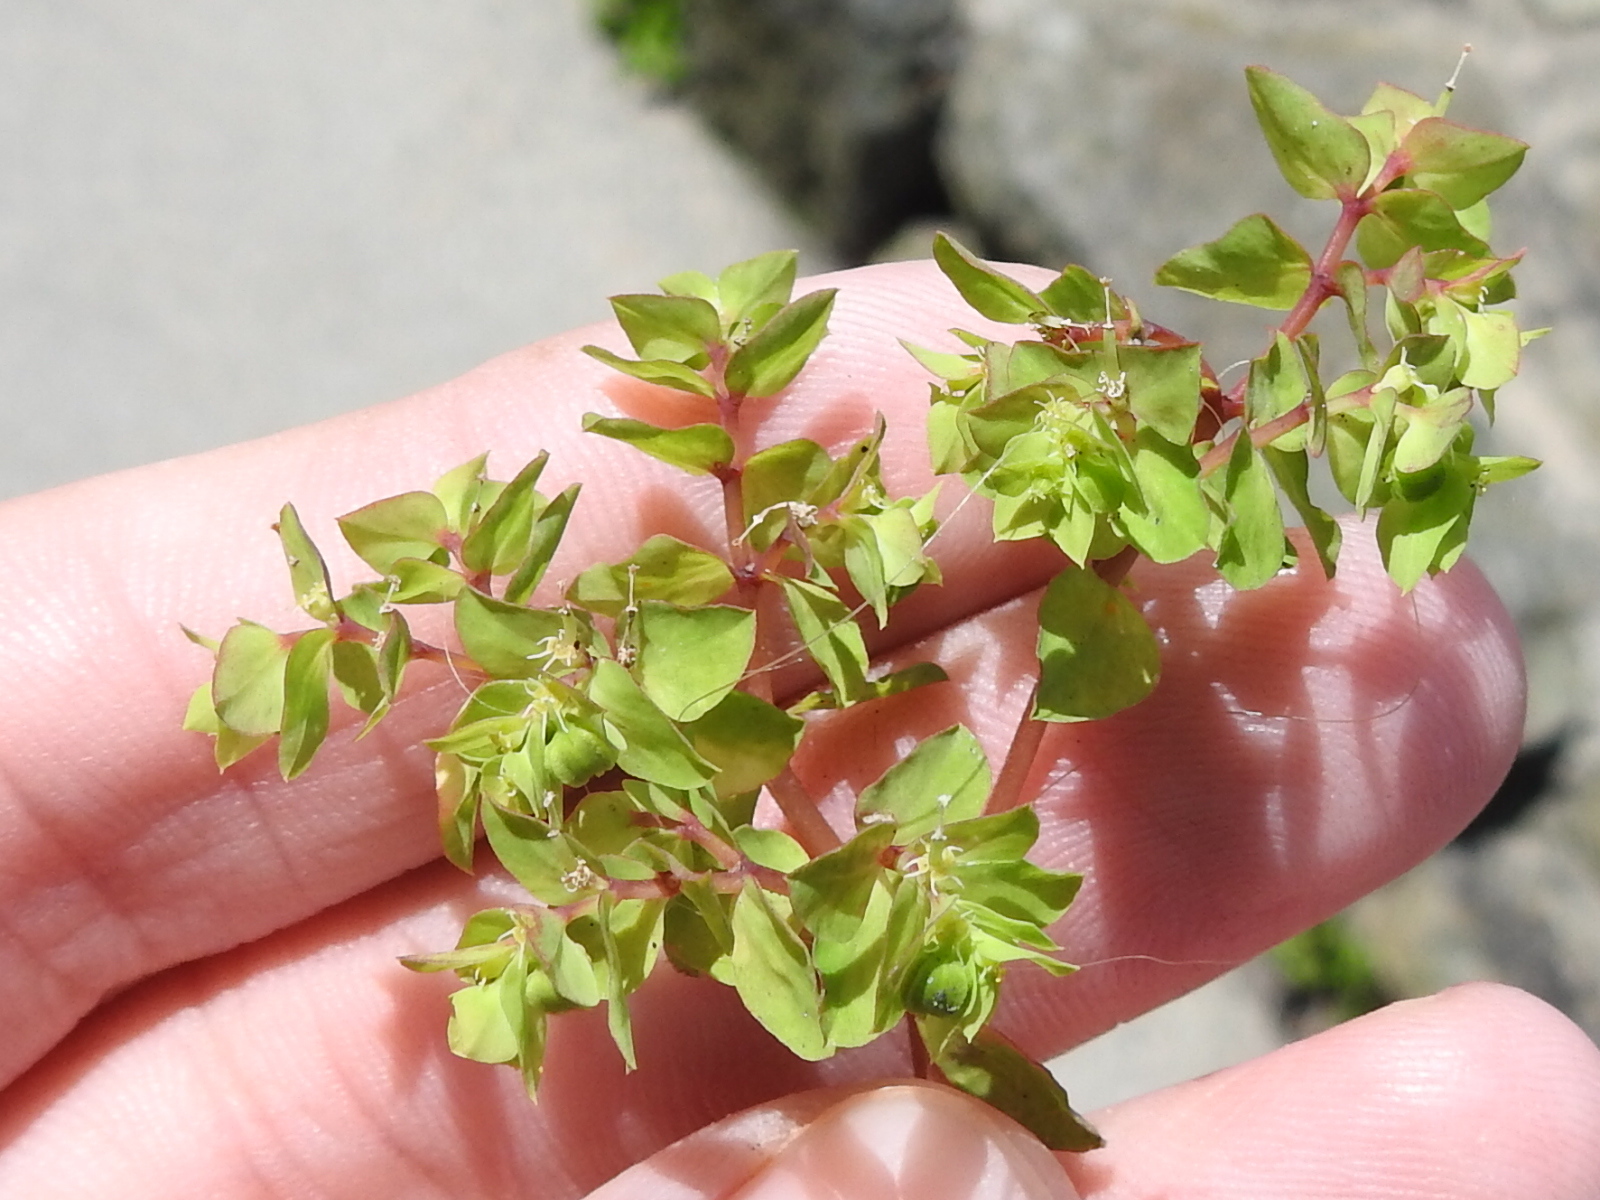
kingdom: Plantae
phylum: Tracheophyta
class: Magnoliopsida
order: Malpighiales
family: Euphorbiaceae
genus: Euphorbia
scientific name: Euphorbia peplus
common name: Petty spurge
